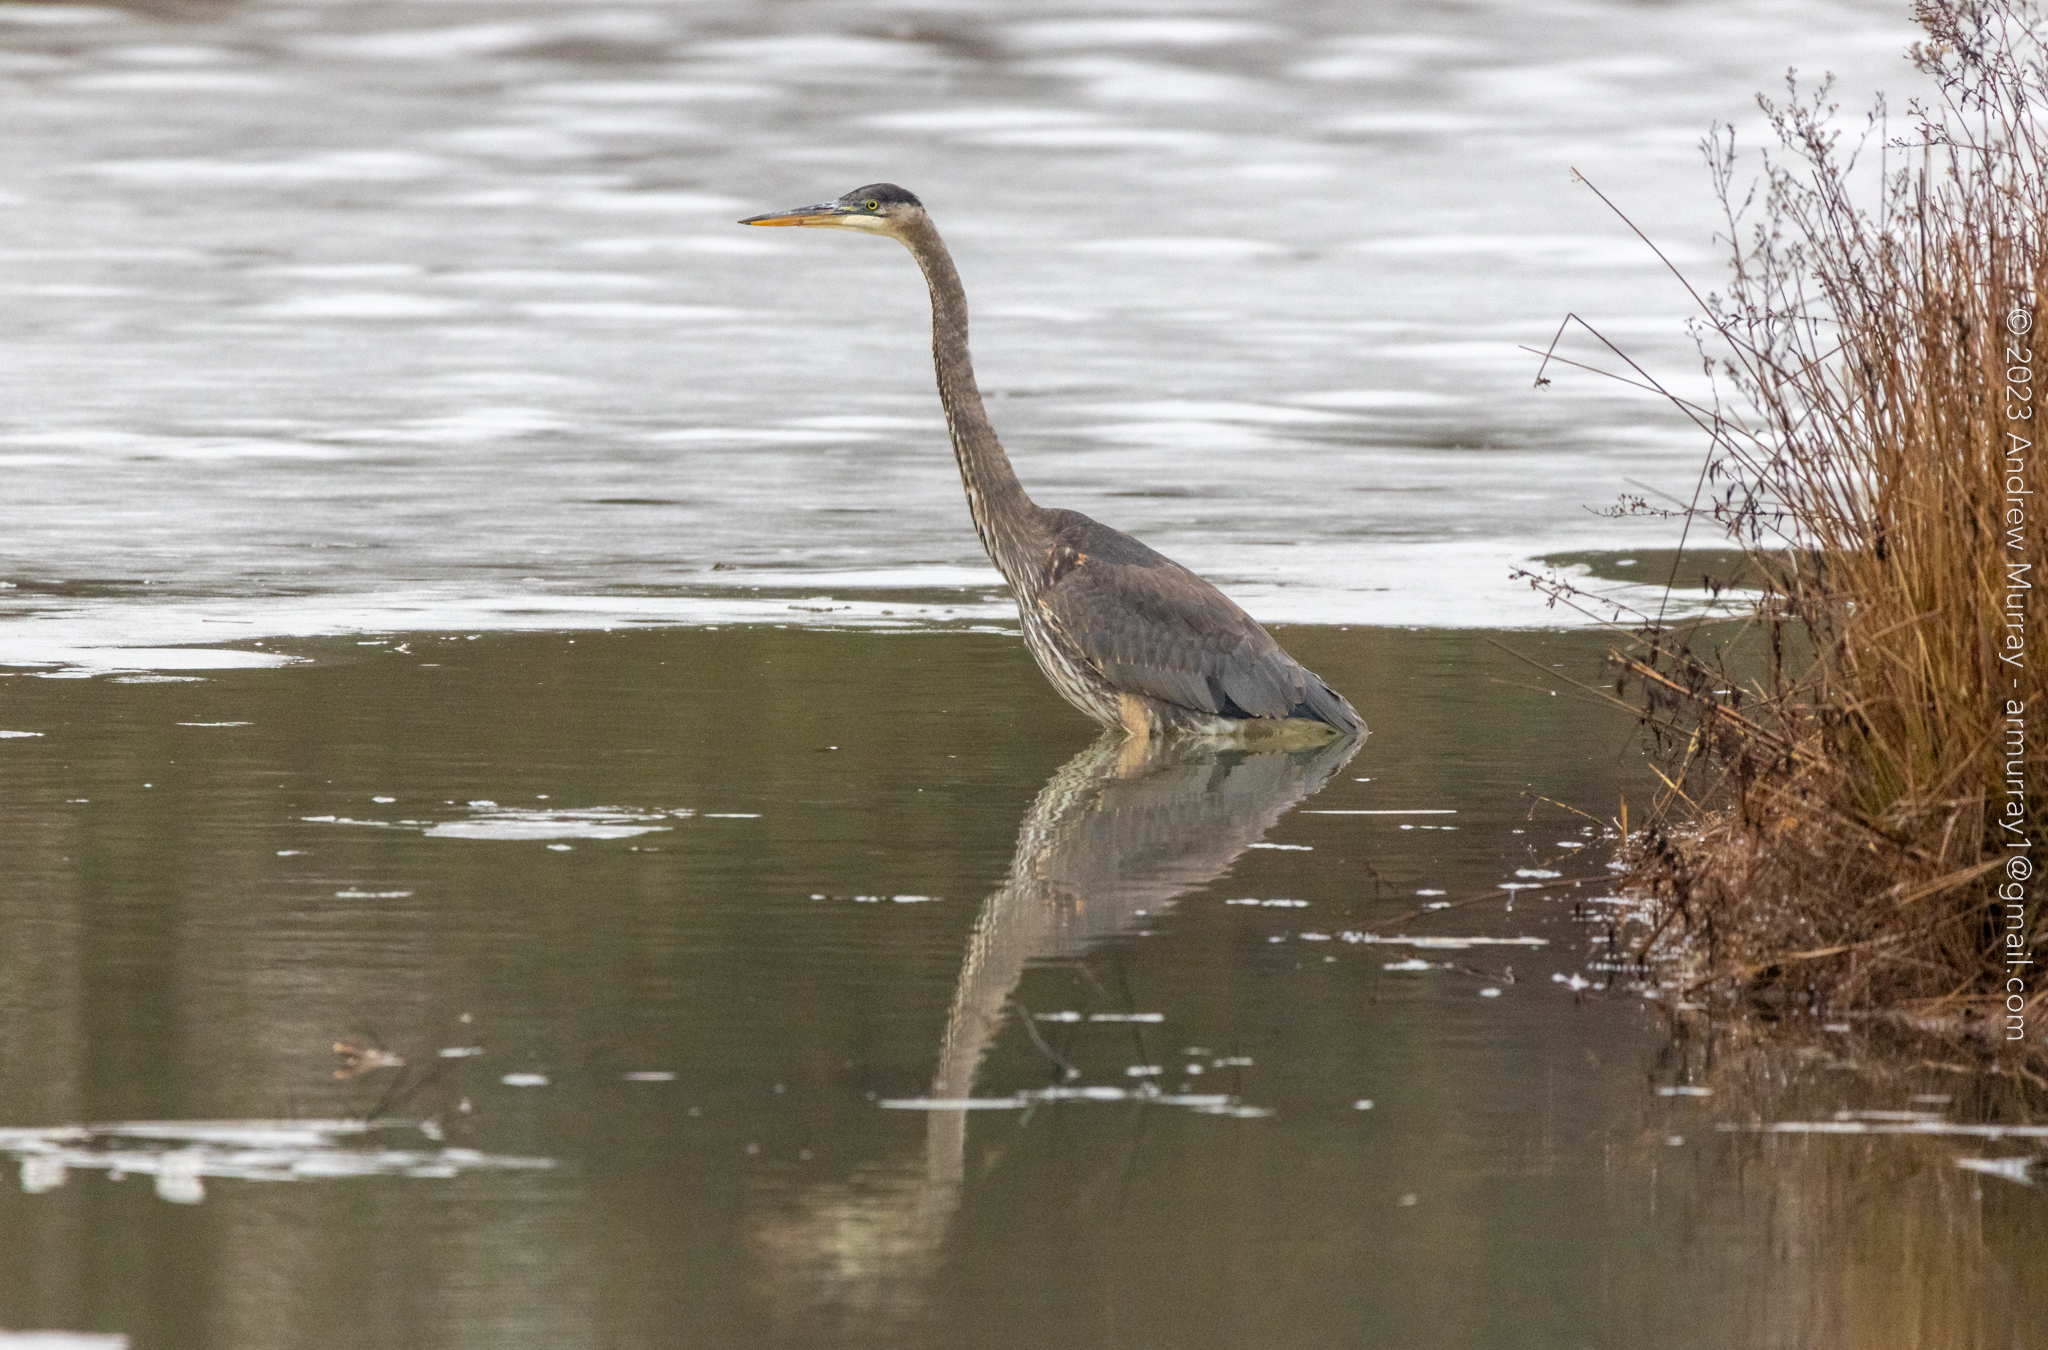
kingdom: Animalia
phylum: Chordata
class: Aves
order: Pelecaniformes
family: Ardeidae
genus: Ardea
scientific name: Ardea herodias
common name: Great blue heron
